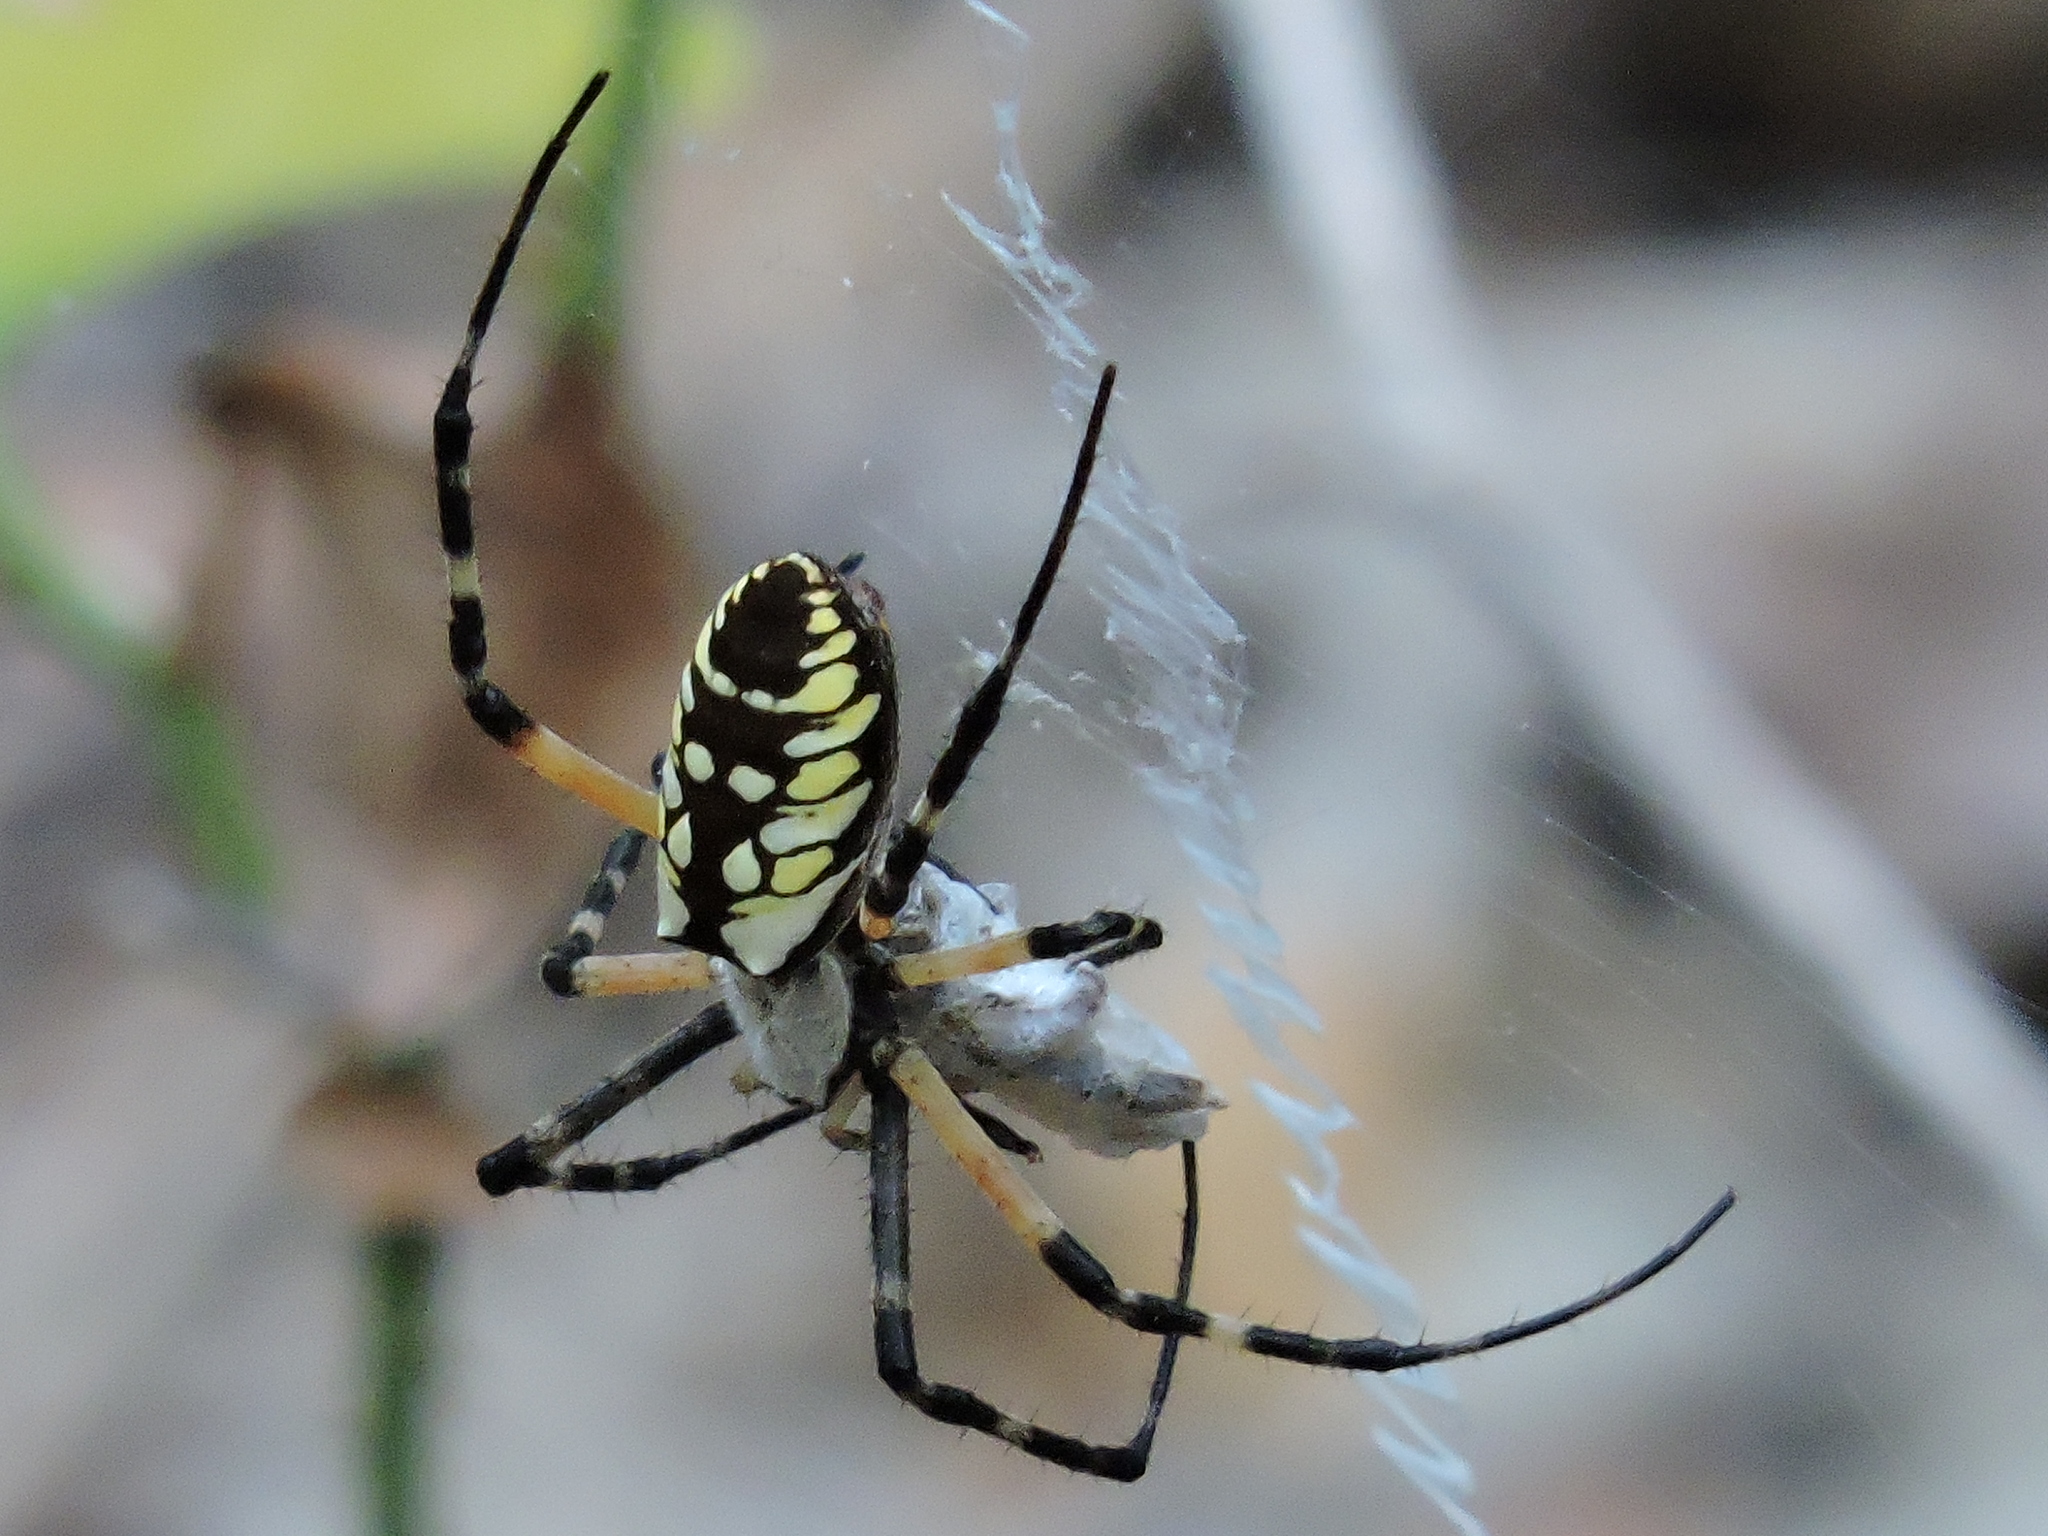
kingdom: Animalia
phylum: Arthropoda
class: Arachnida
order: Araneae
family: Araneidae
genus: Argiope
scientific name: Argiope aurantia
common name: Orb weavers
